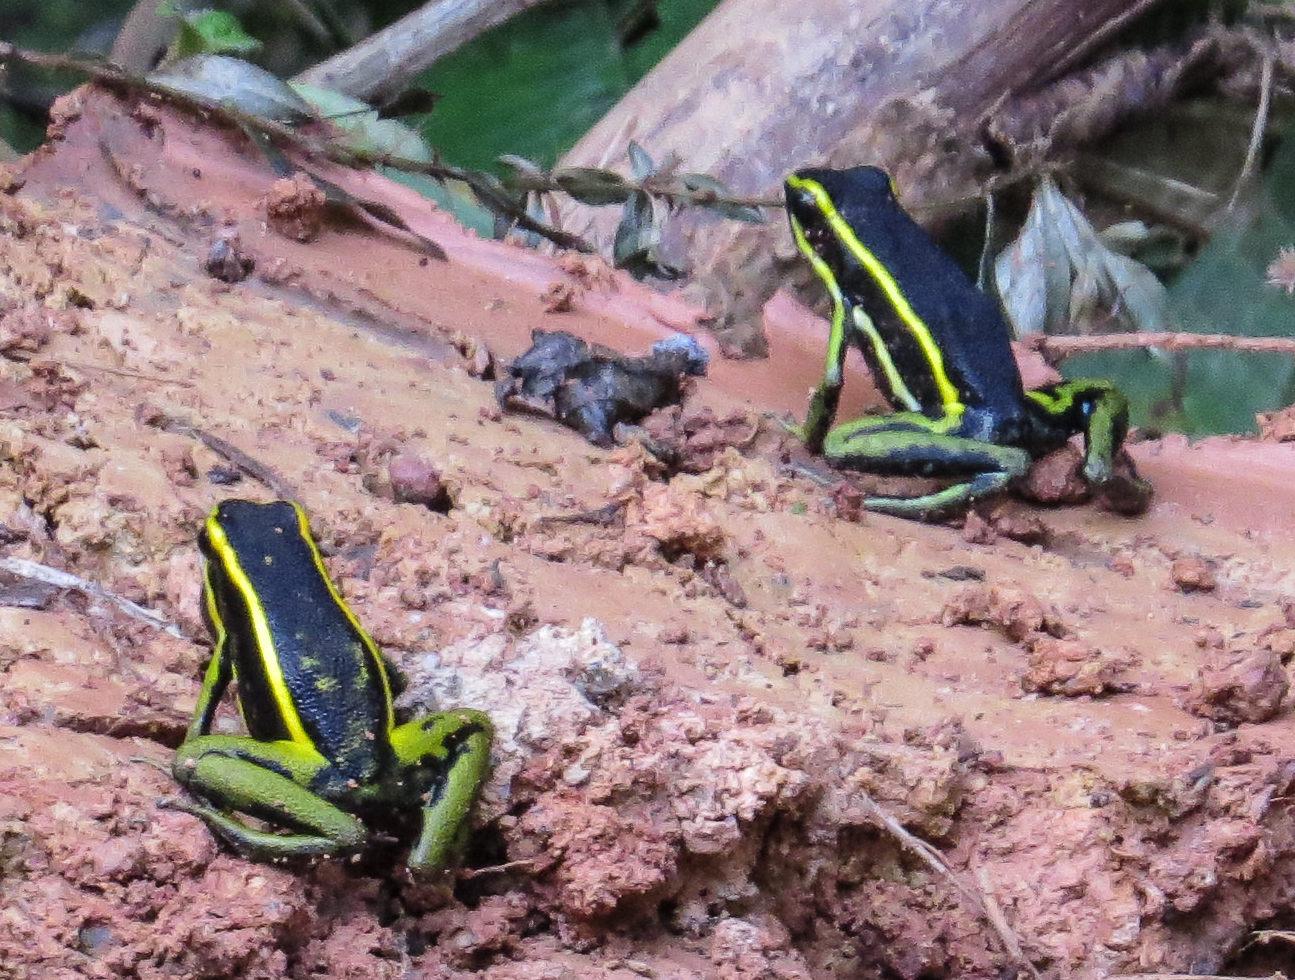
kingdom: Animalia
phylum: Chordata
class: Amphibia
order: Anura
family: Dendrobatidae
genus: Ameerega
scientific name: Ameerega trivittata
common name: Three-striped arrow-poison frog
